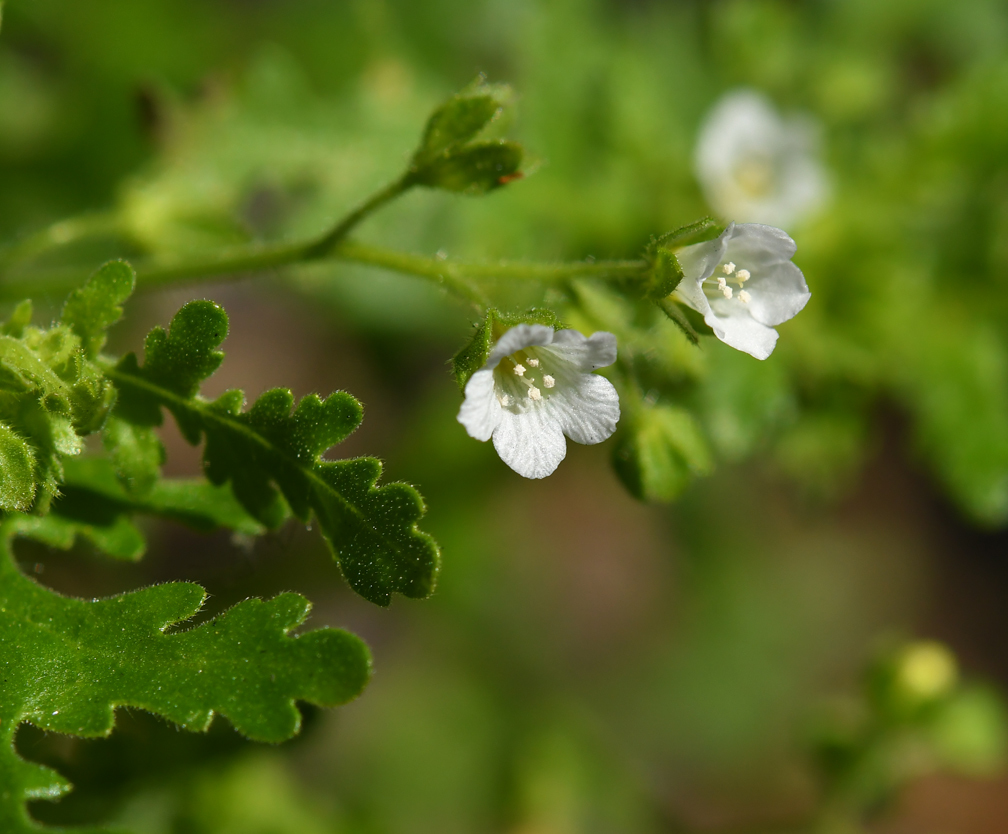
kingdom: Plantae
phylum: Tracheophyta
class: Magnoliopsida
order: Boraginales
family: Hydrophyllaceae
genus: Eucrypta
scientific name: Eucrypta chrysanthemifolia
